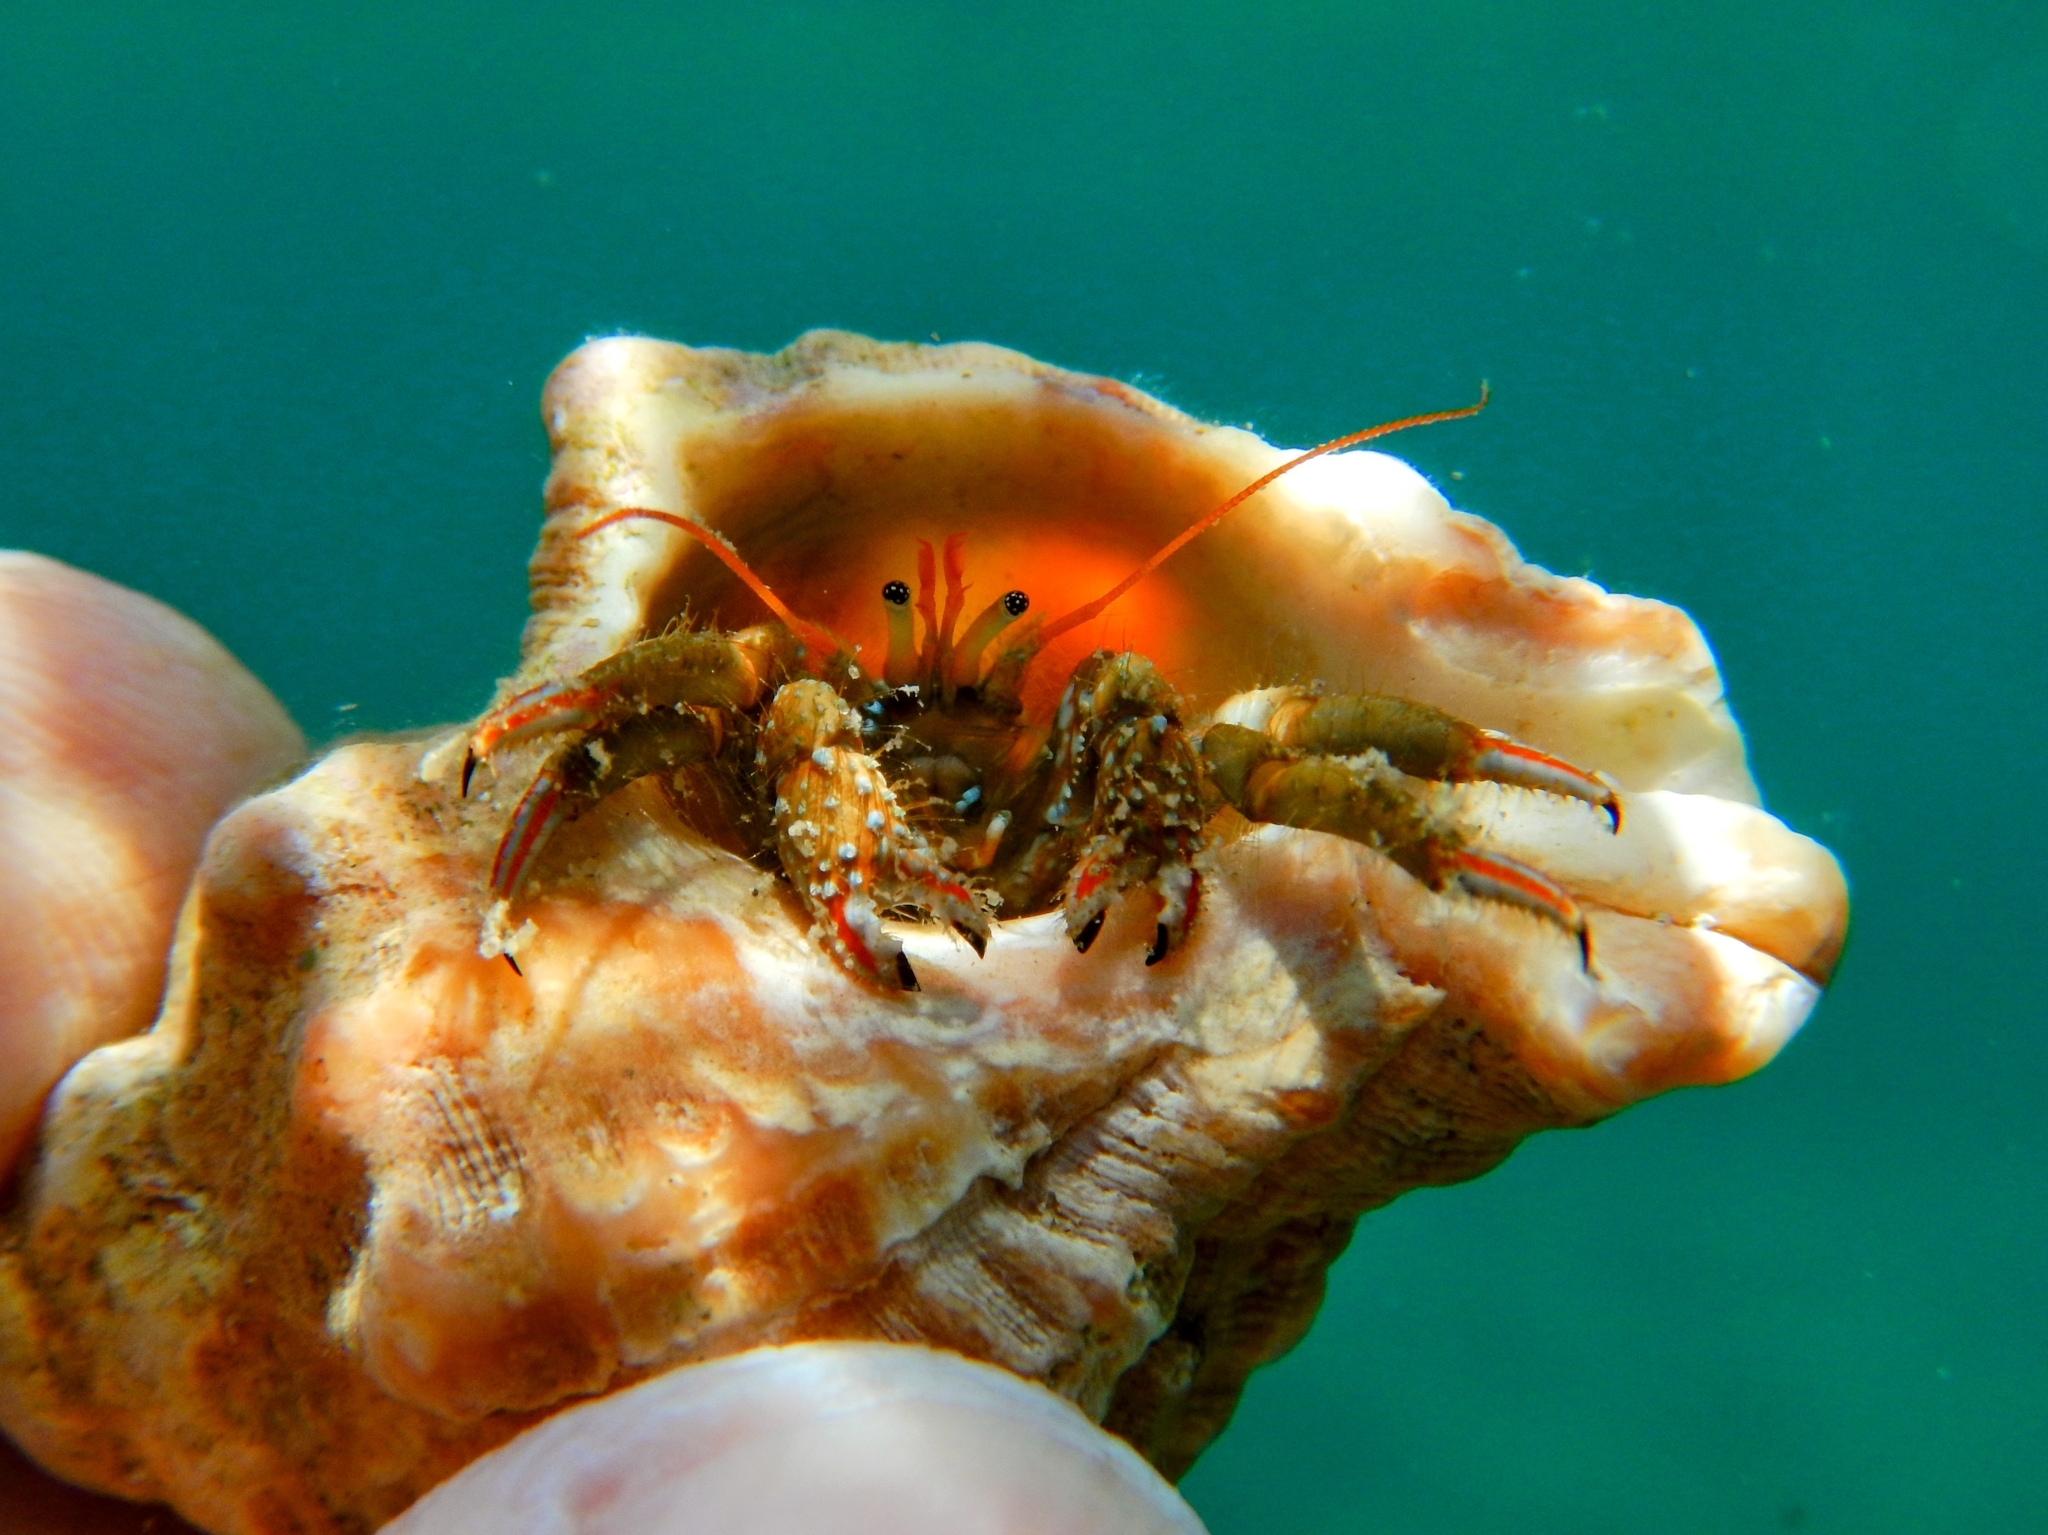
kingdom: Animalia
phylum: Arthropoda
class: Malacostraca
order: Decapoda
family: Diogenidae
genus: Clibanarius
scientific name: Clibanarius erythropus
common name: Hermit crab
